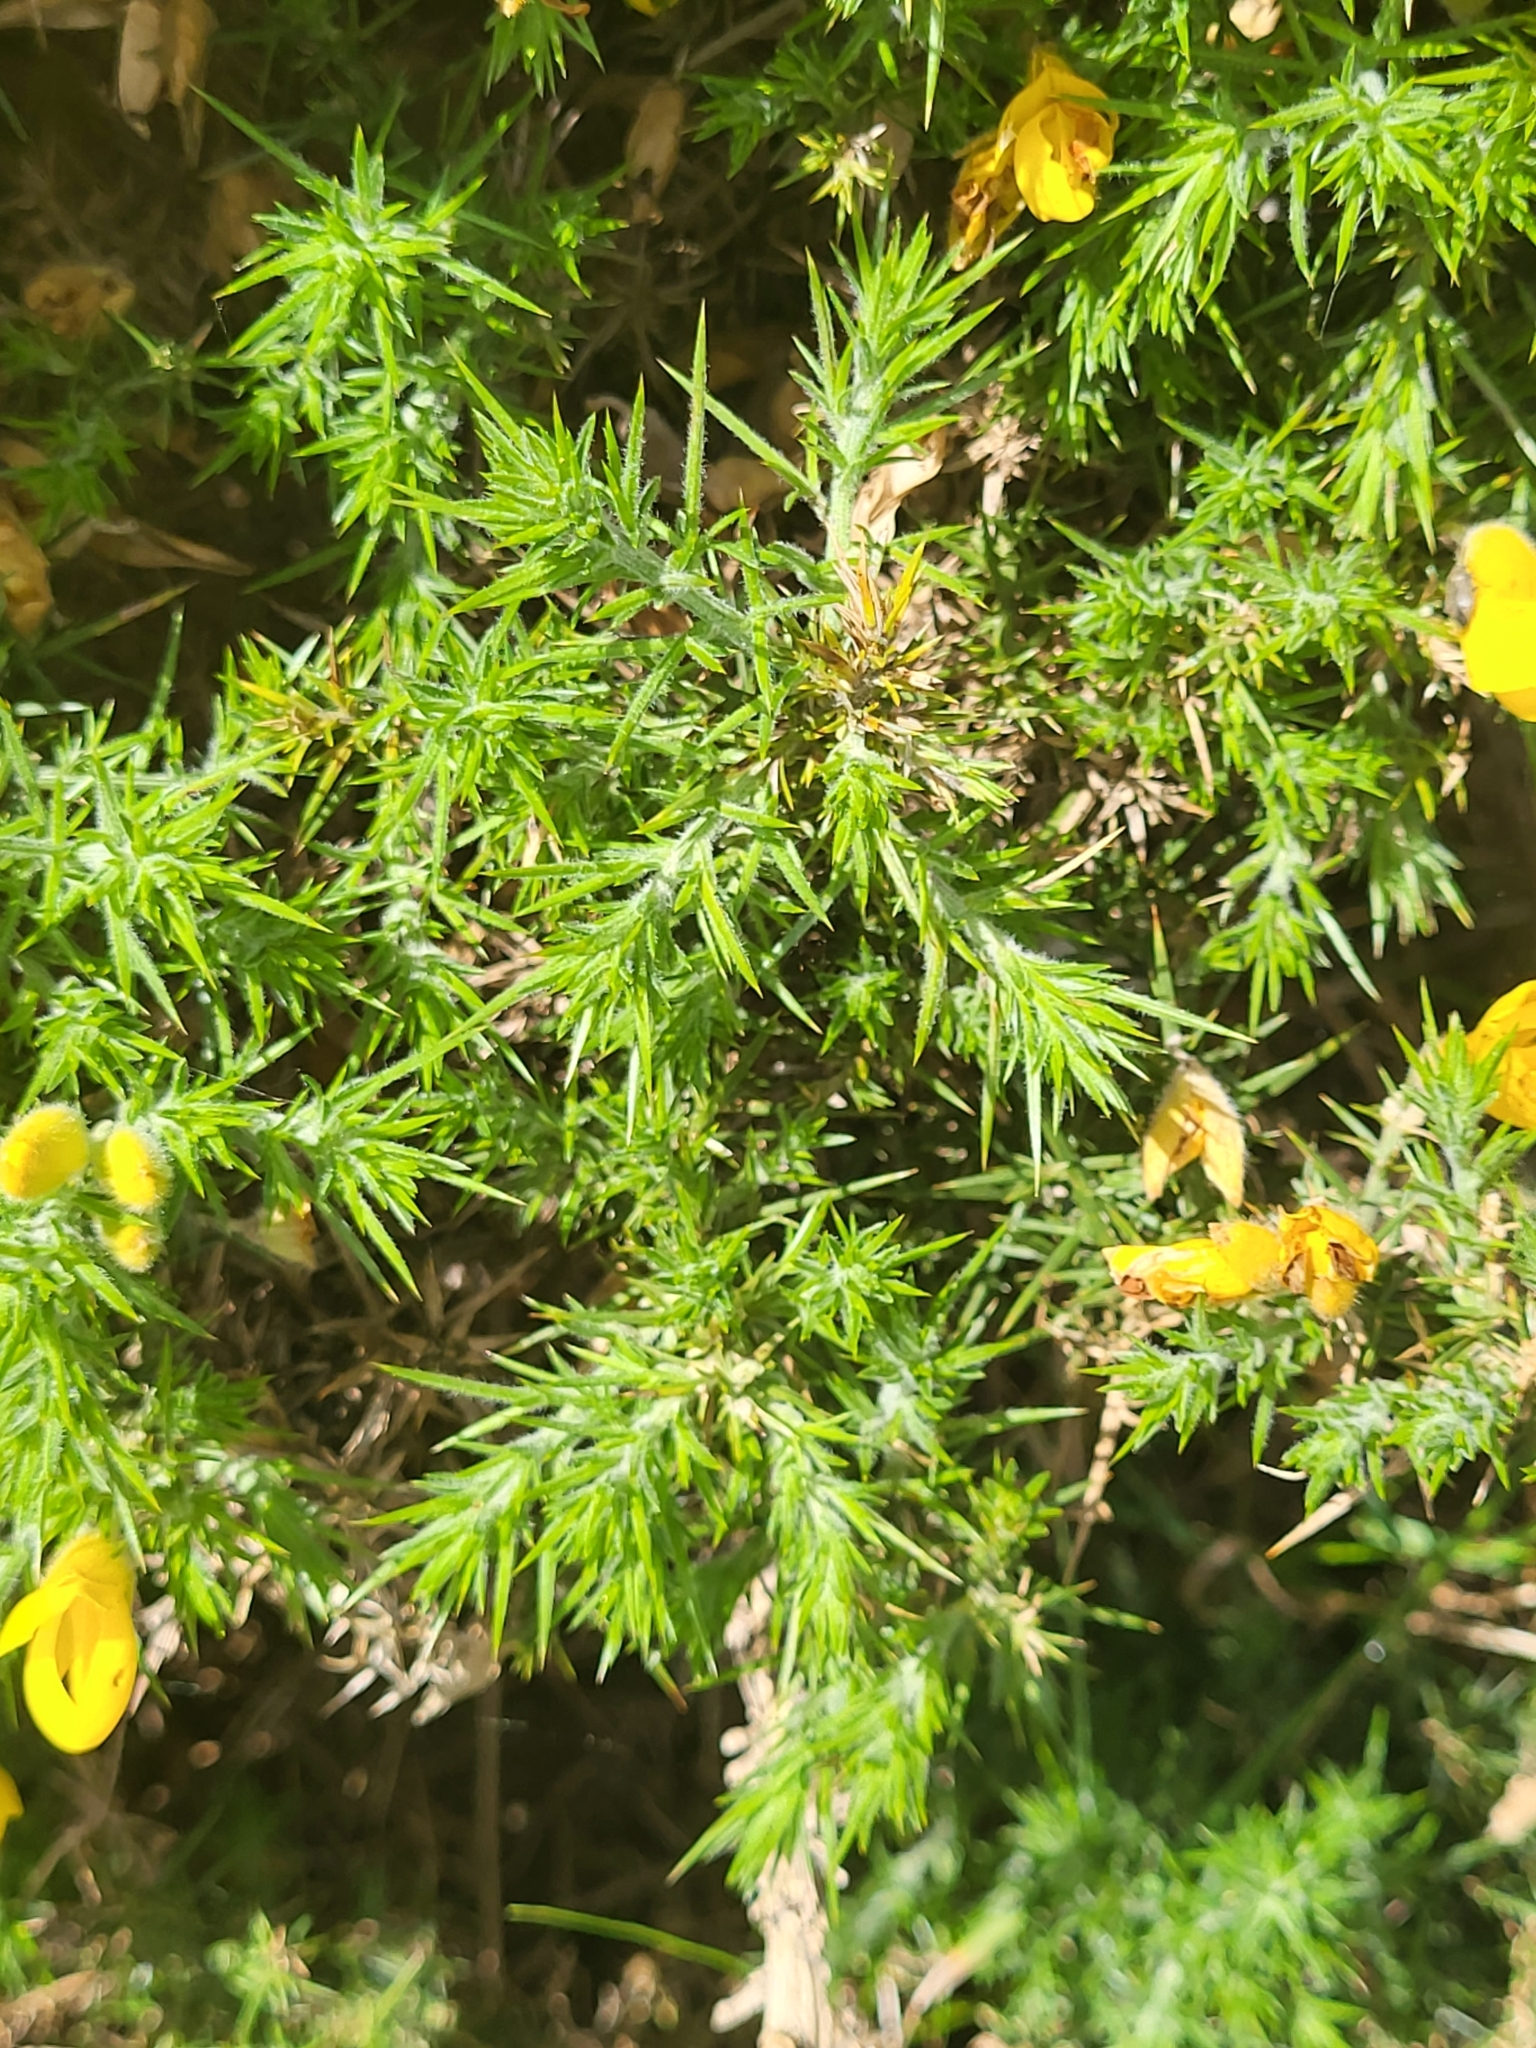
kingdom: Plantae
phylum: Tracheophyta
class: Magnoliopsida
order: Fabales
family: Fabaceae
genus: Ulex
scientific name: Ulex europaeus
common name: Common gorse
